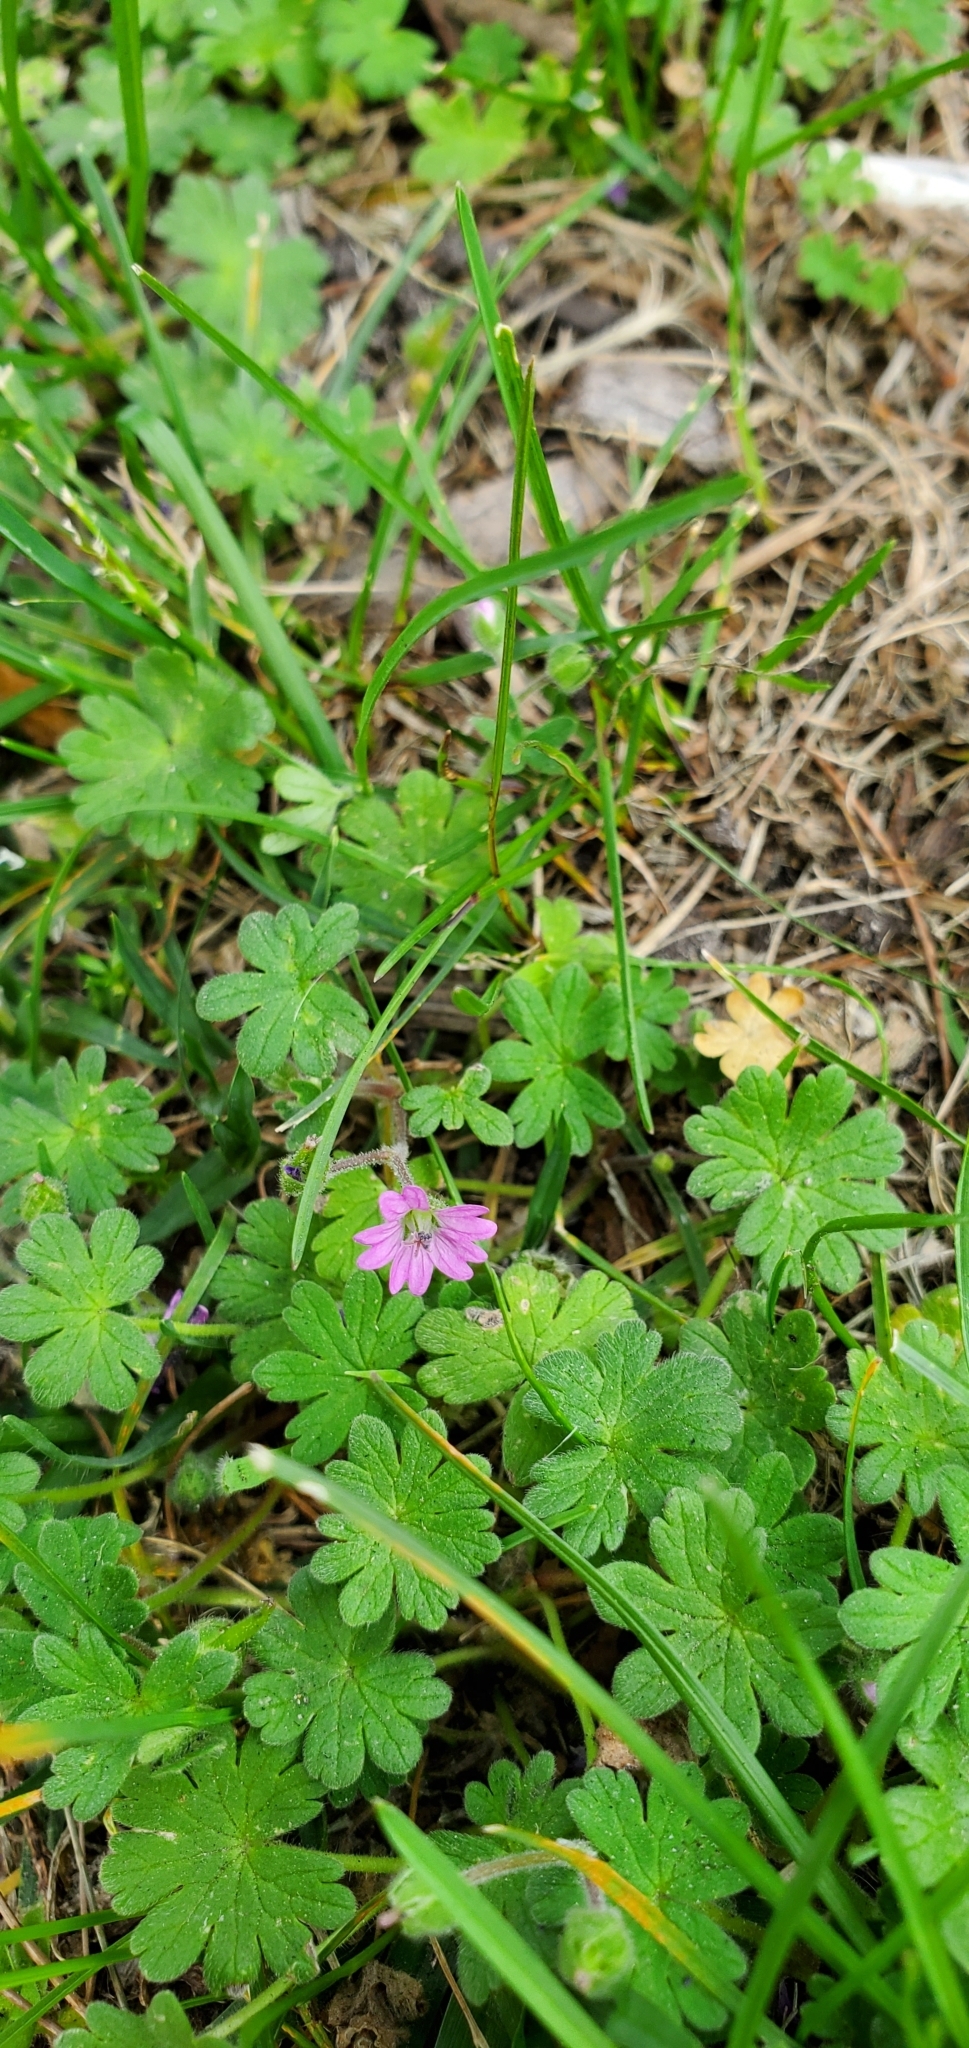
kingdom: Plantae
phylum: Tracheophyta
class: Magnoliopsida
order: Geraniales
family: Geraniaceae
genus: Geranium
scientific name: Geranium molle
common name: Dove's-foot crane's-bill
